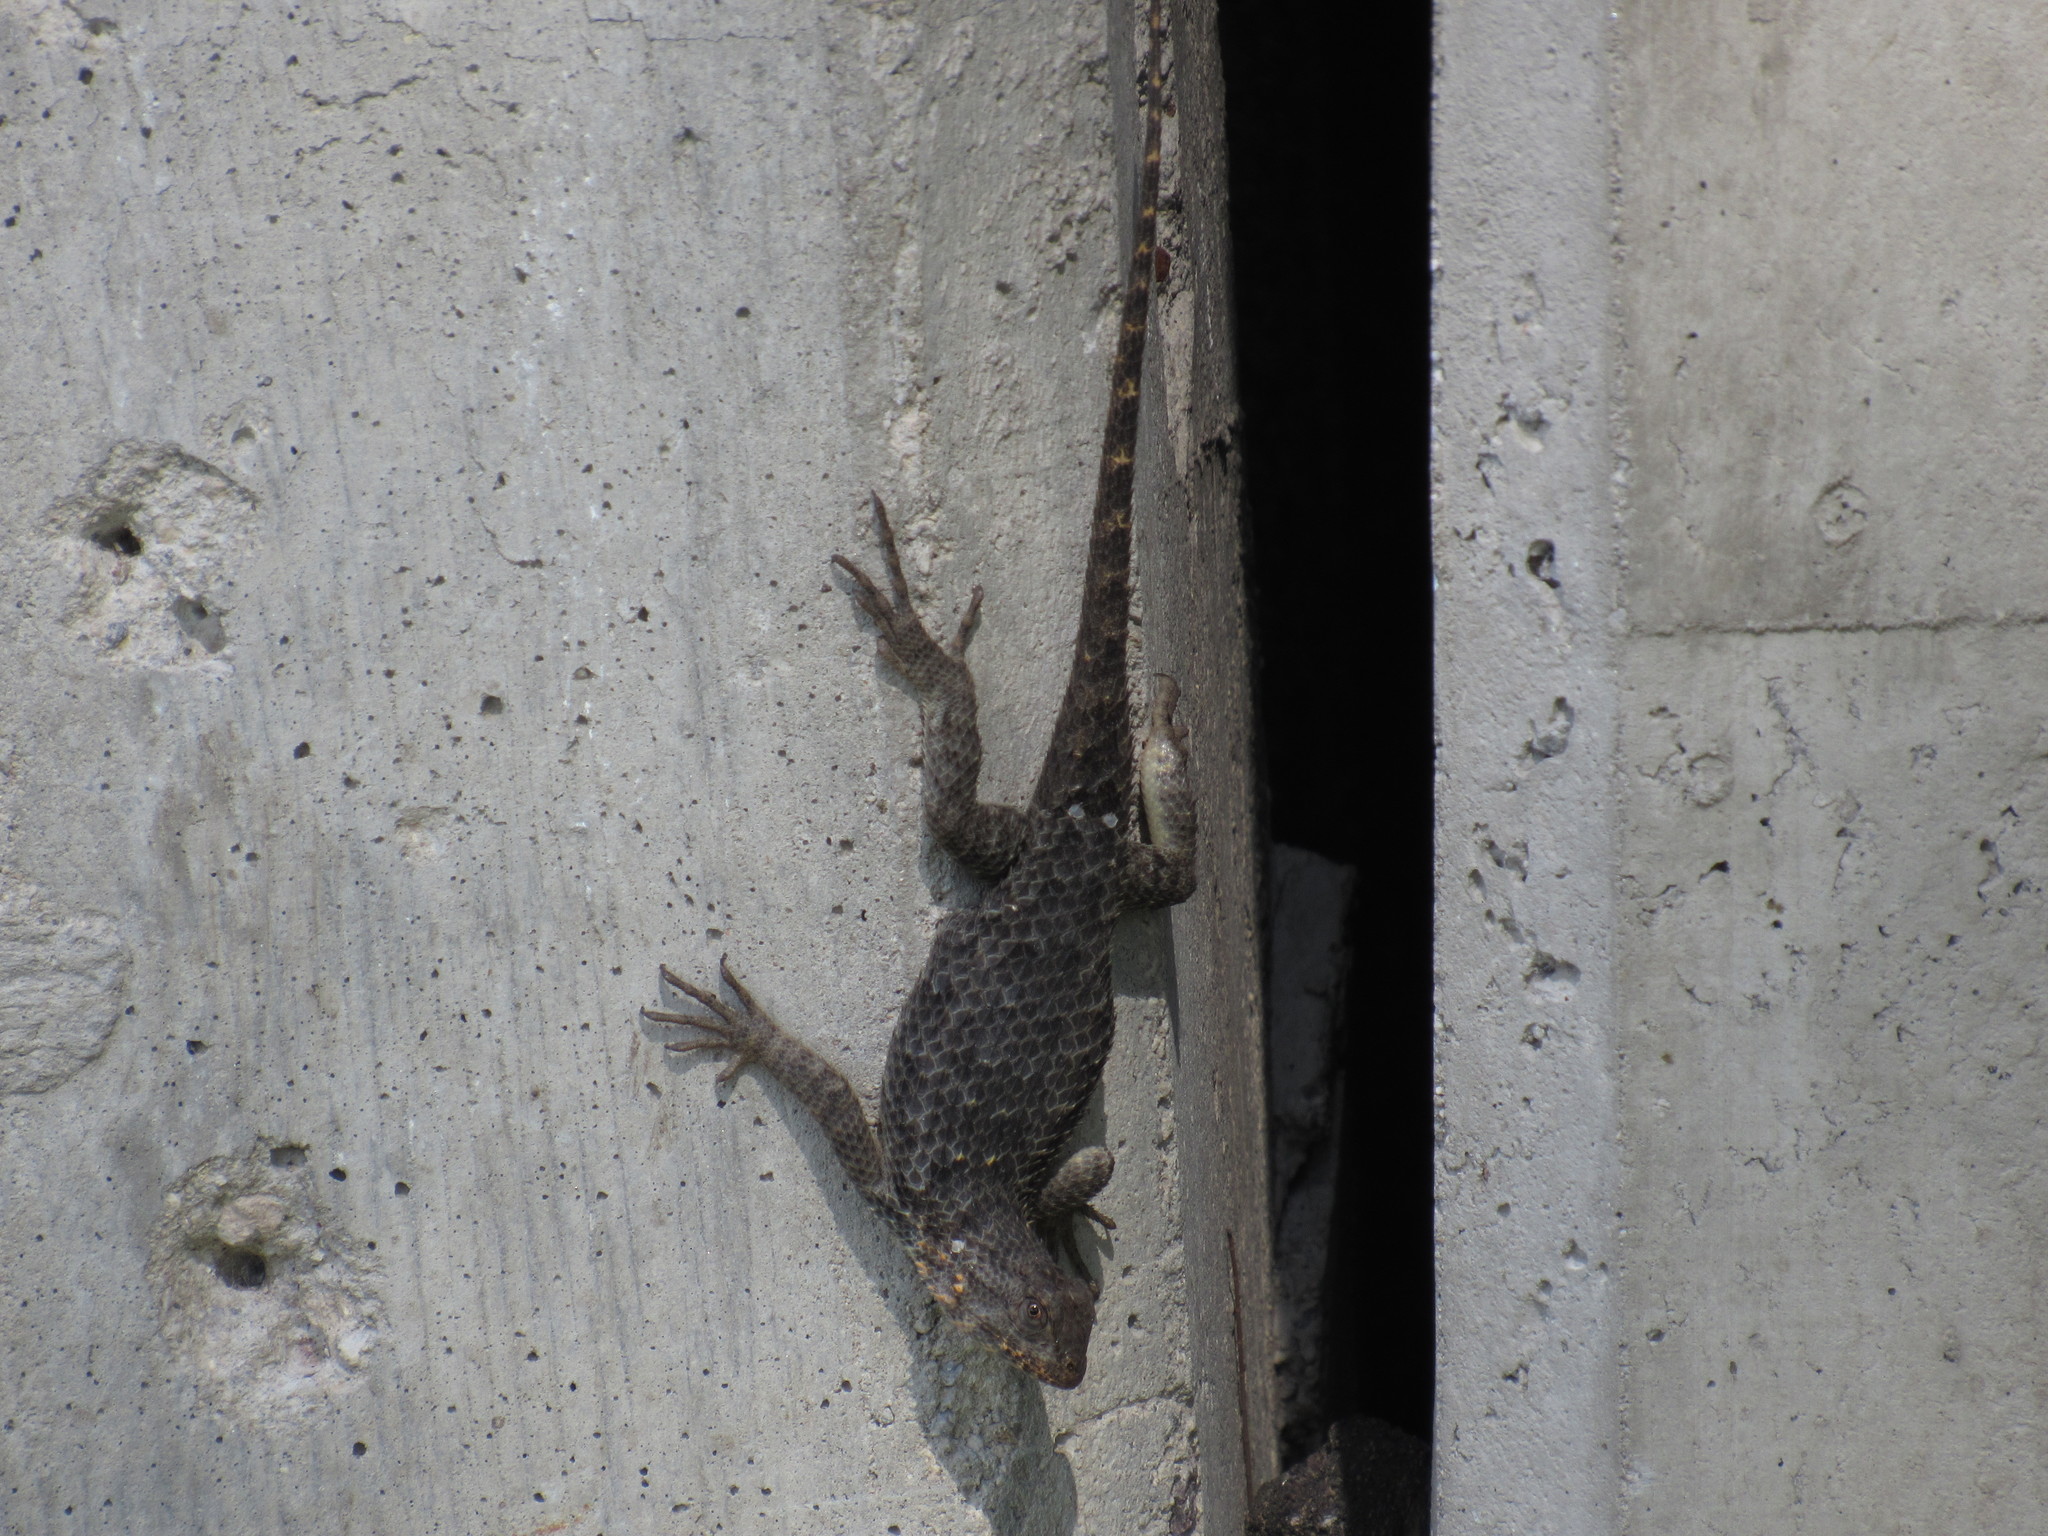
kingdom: Animalia
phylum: Chordata
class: Squamata
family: Phrynosomatidae
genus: Sceloporus
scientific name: Sceloporus spinosus
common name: Blue-spotted spiny lizard [caeruleopunctatus]
